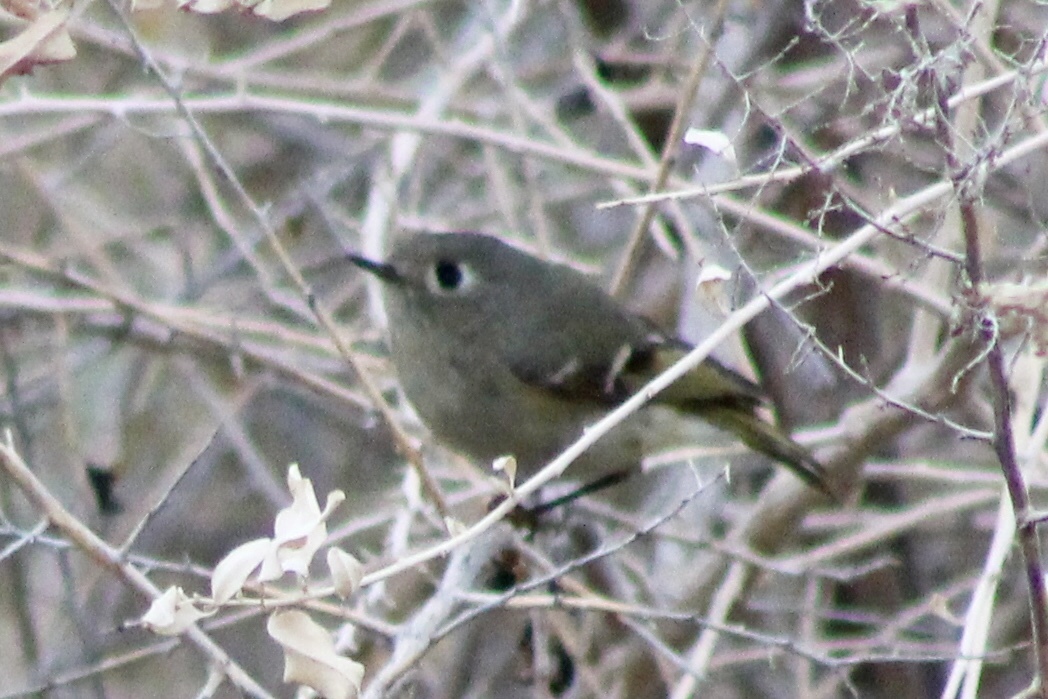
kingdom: Animalia
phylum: Chordata
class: Aves
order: Passeriformes
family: Regulidae
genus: Regulus
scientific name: Regulus calendula
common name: Ruby-crowned kinglet
